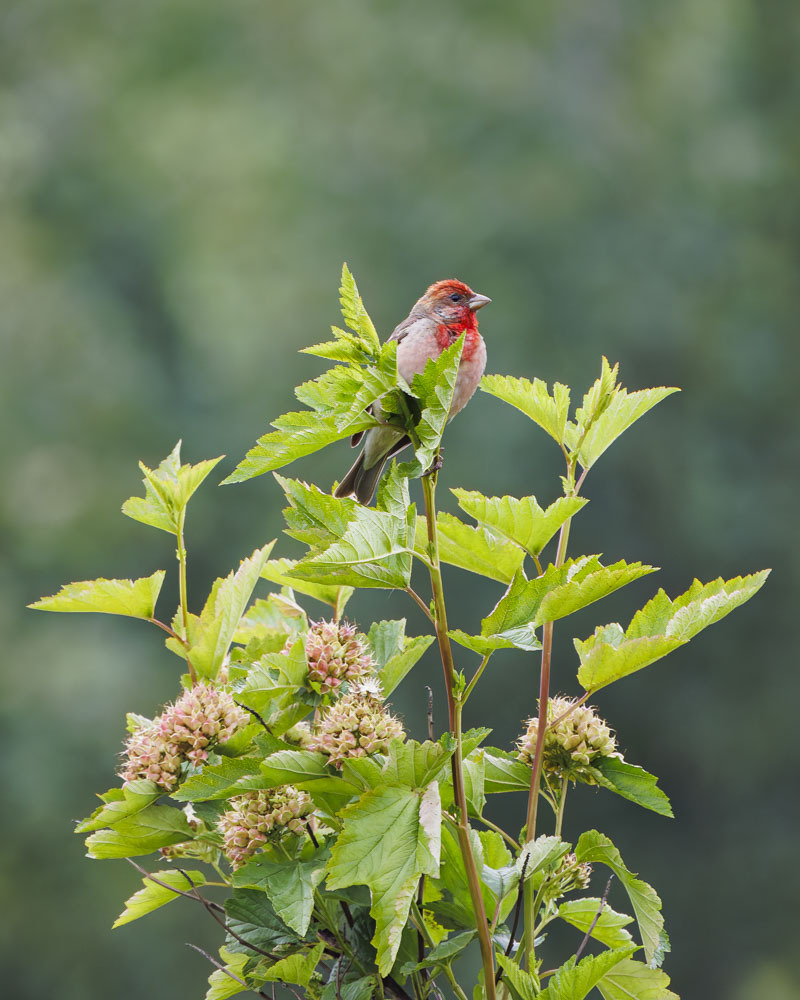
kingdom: Animalia
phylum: Chordata
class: Aves
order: Passeriformes
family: Fringillidae
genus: Carpodacus
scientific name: Carpodacus erythrinus
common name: Common rosefinch
